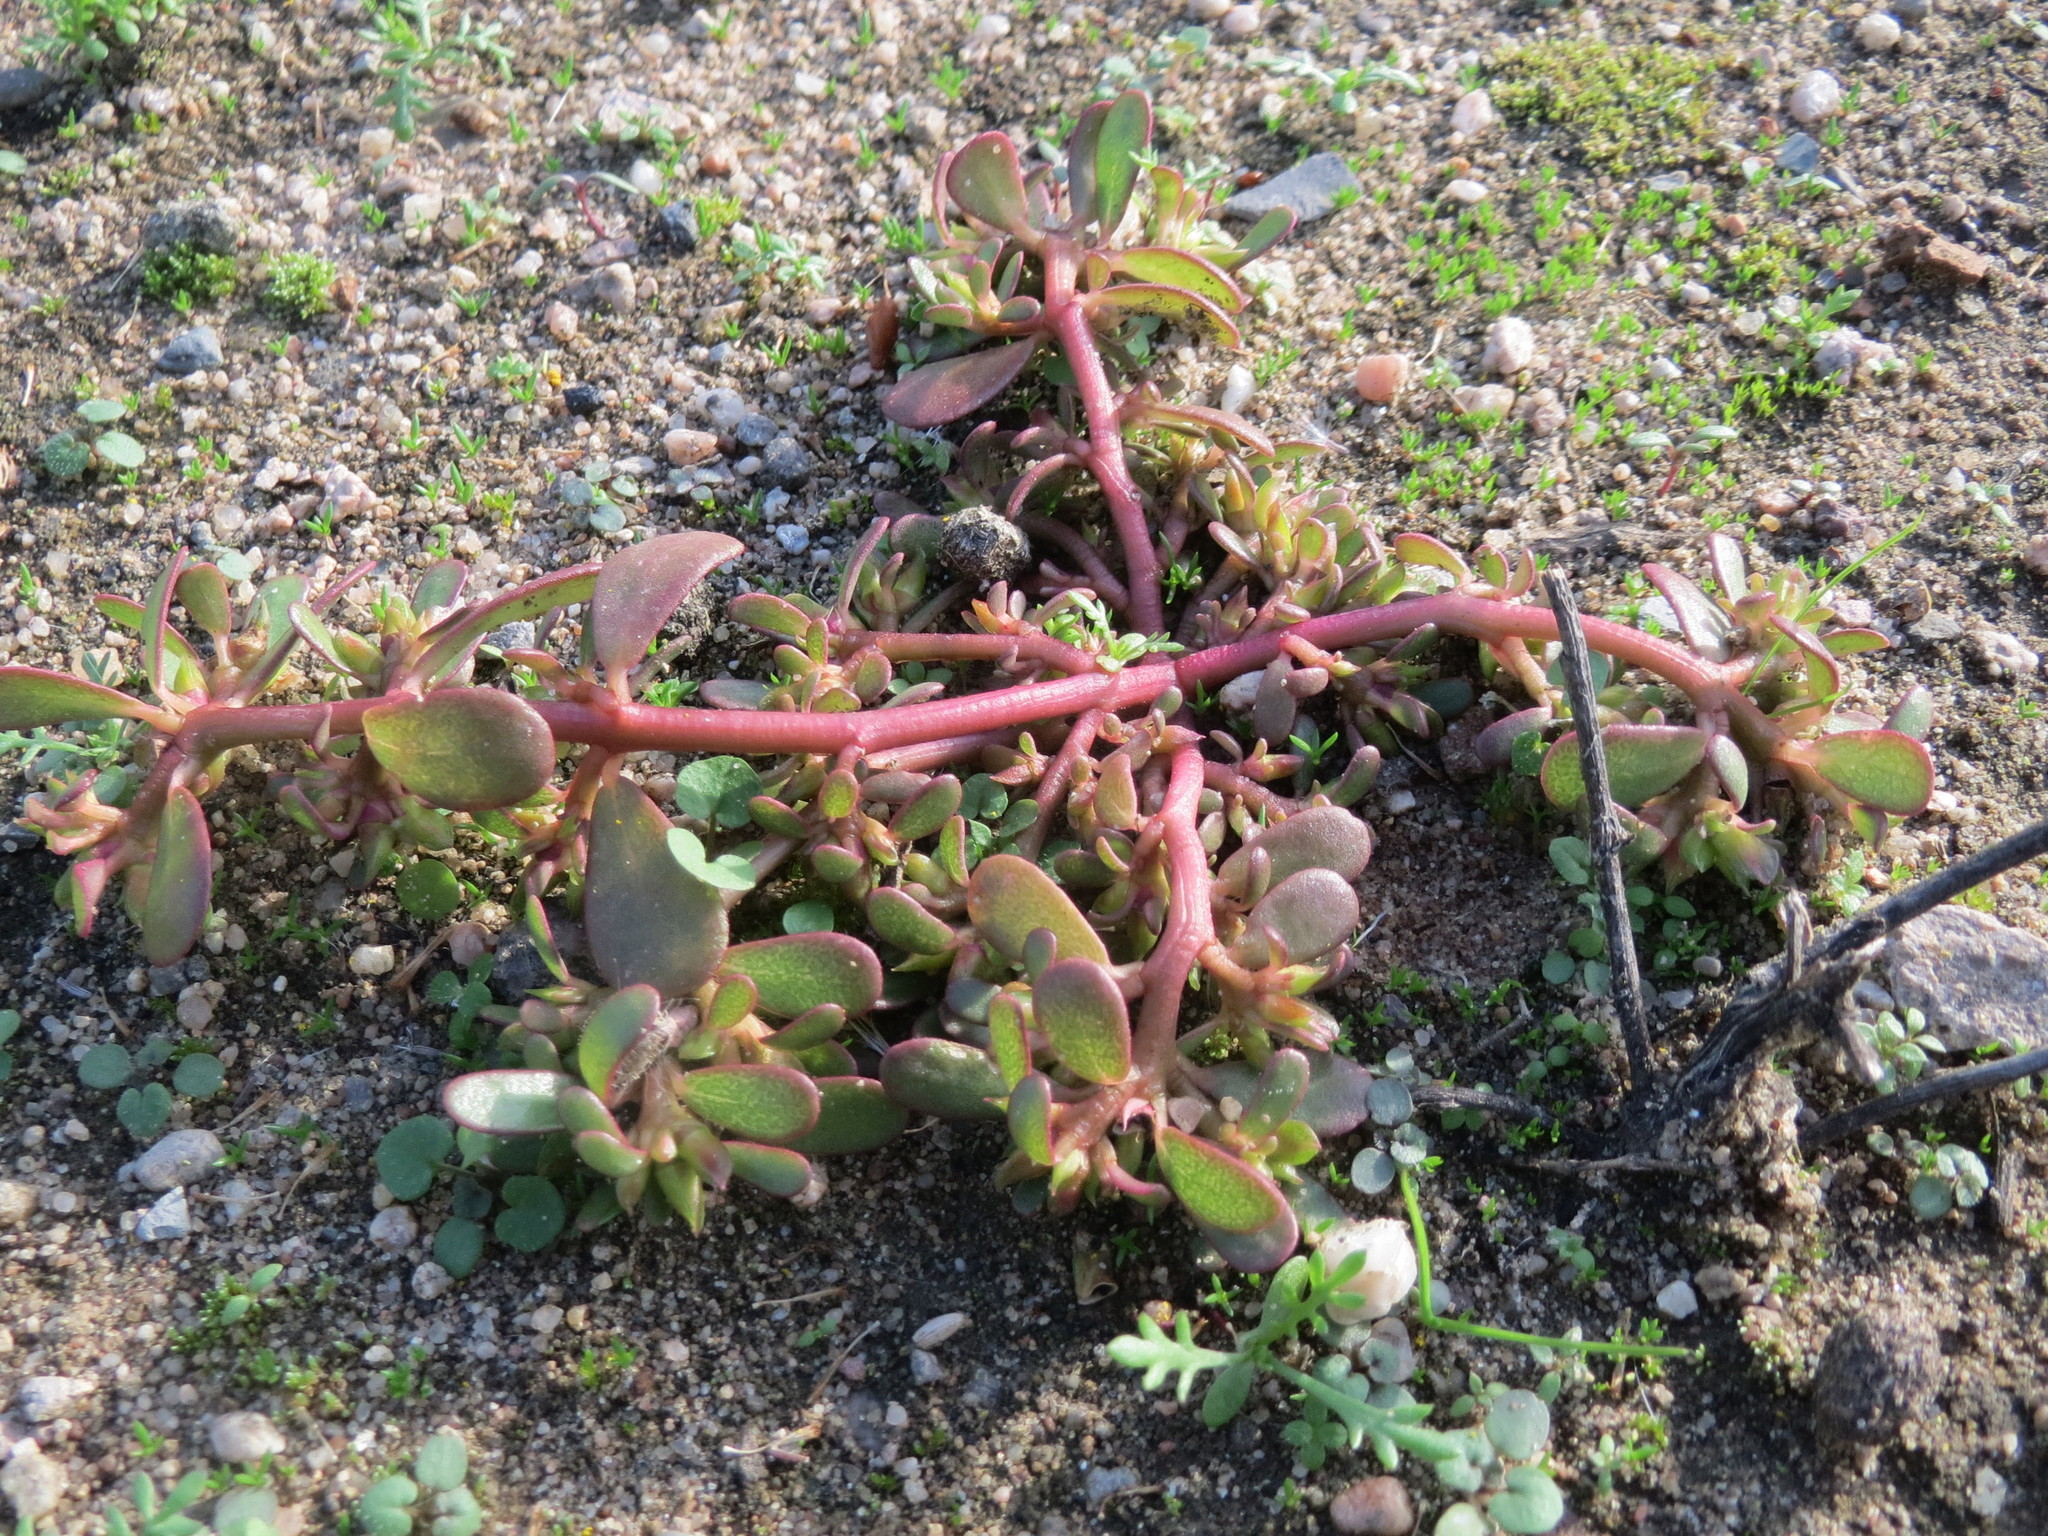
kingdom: Plantae
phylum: Tracheophyta
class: Magnoliopsida
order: Caryophyllales
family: Portulacaceae
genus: Portulaca
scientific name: Portulaca oleracea
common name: Common purslane
